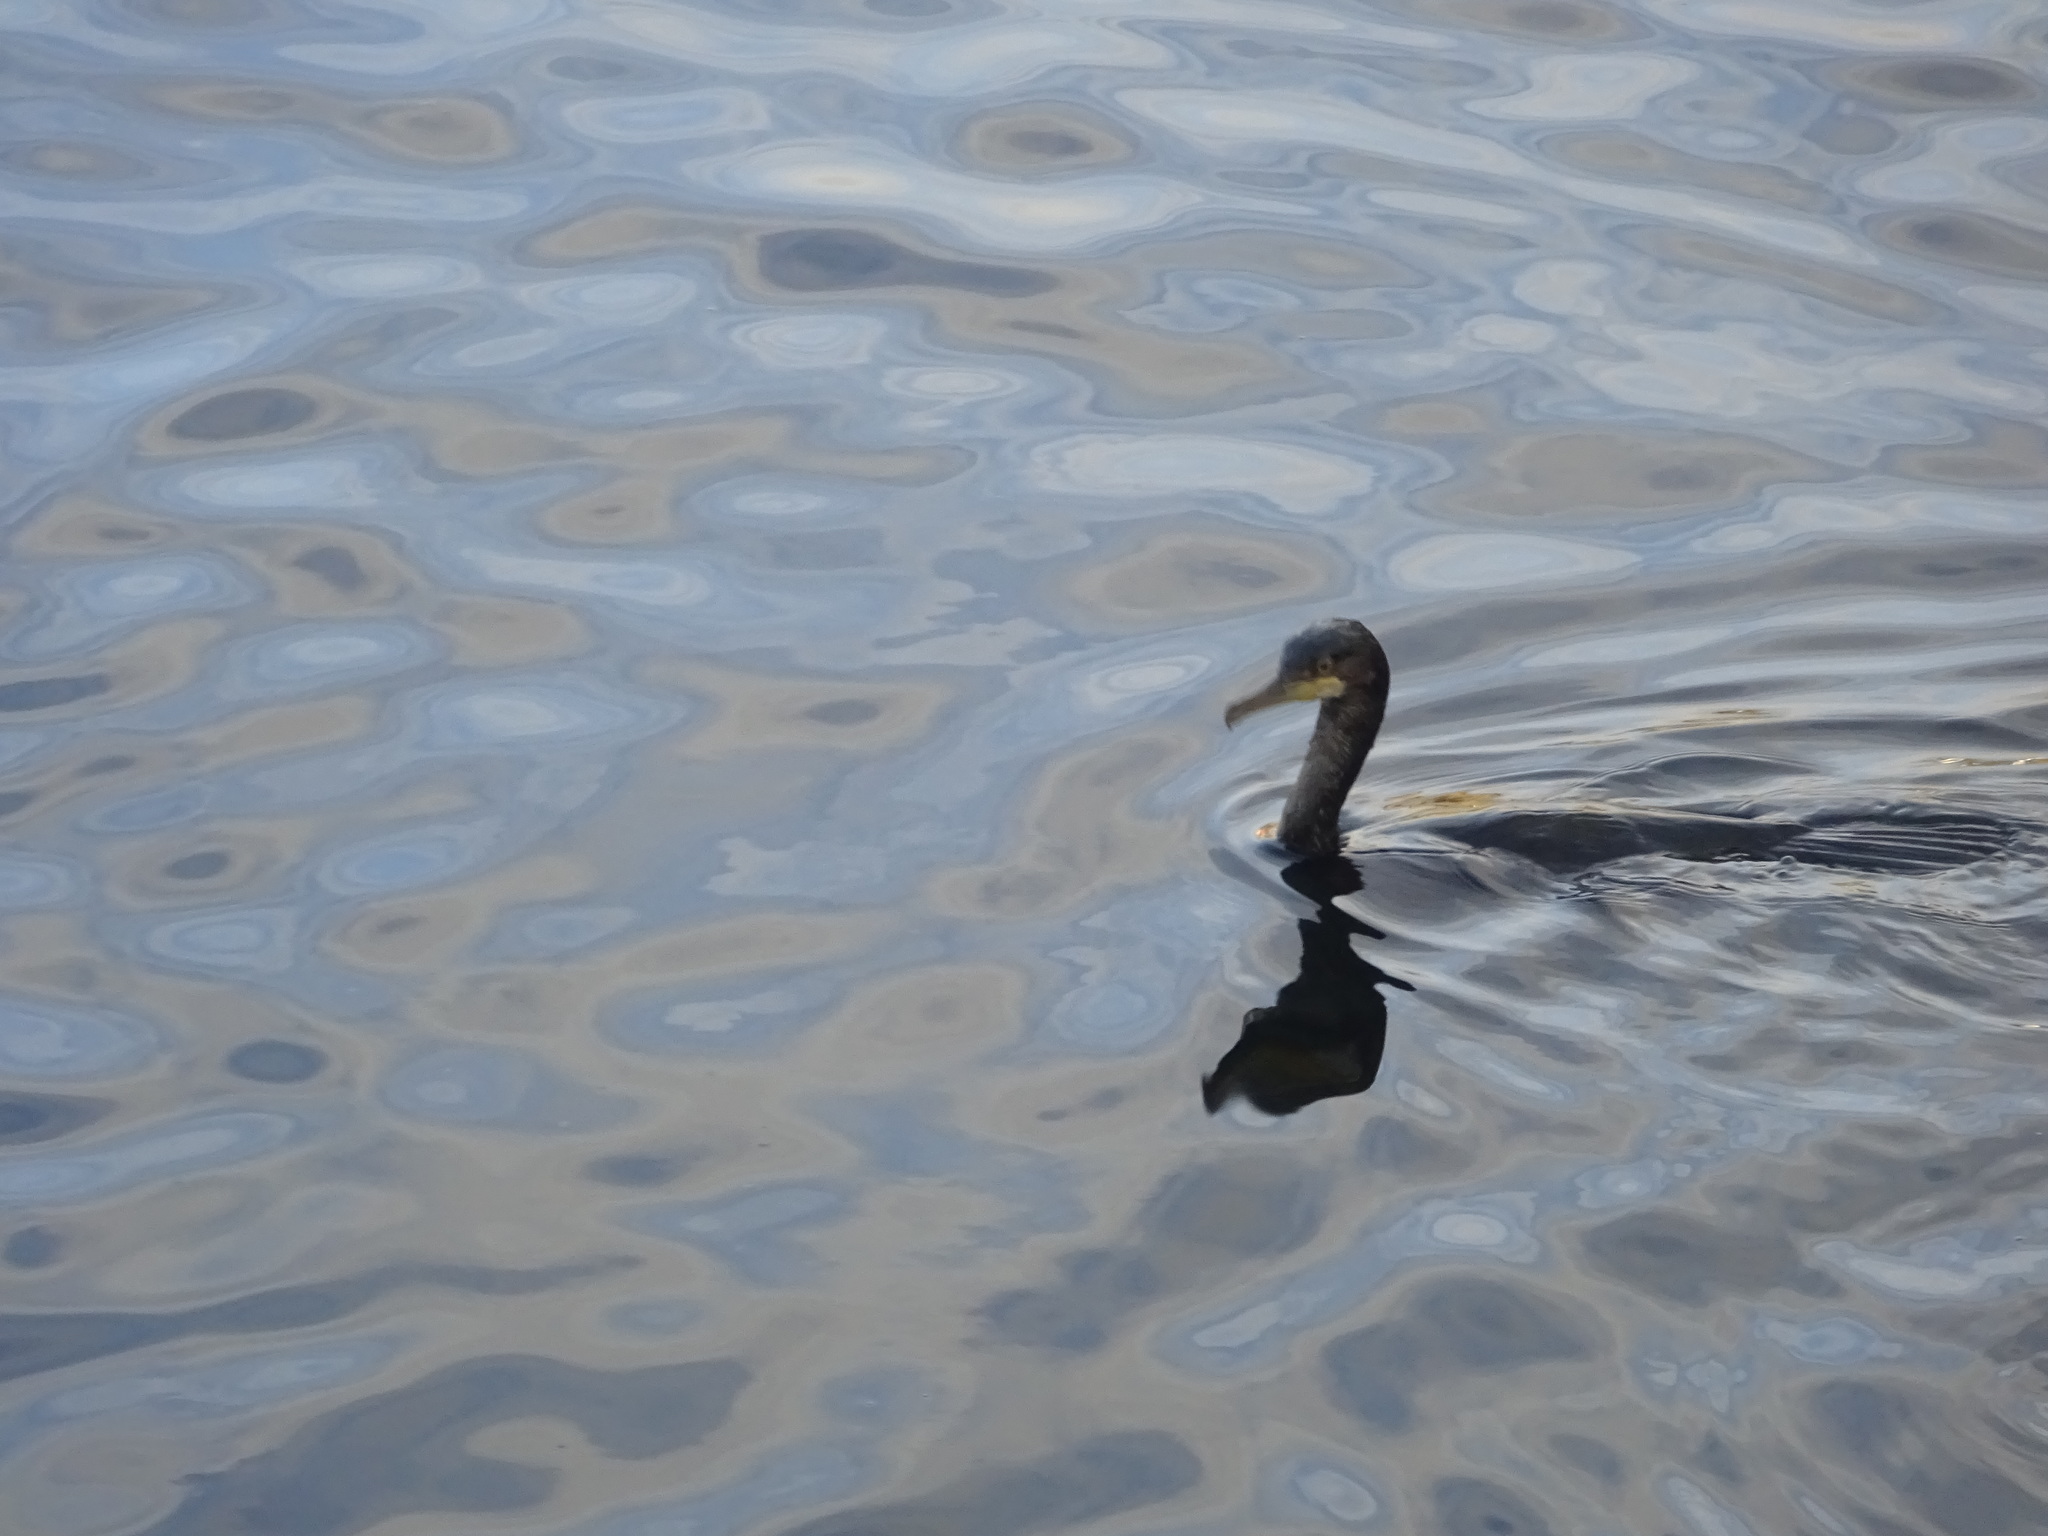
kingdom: Animalia
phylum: Chordata
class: Aves
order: Suliformes
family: Phalacrocoracidae
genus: Phalacrocorax
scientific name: Phalacrocorax aristotelis
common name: European shag
